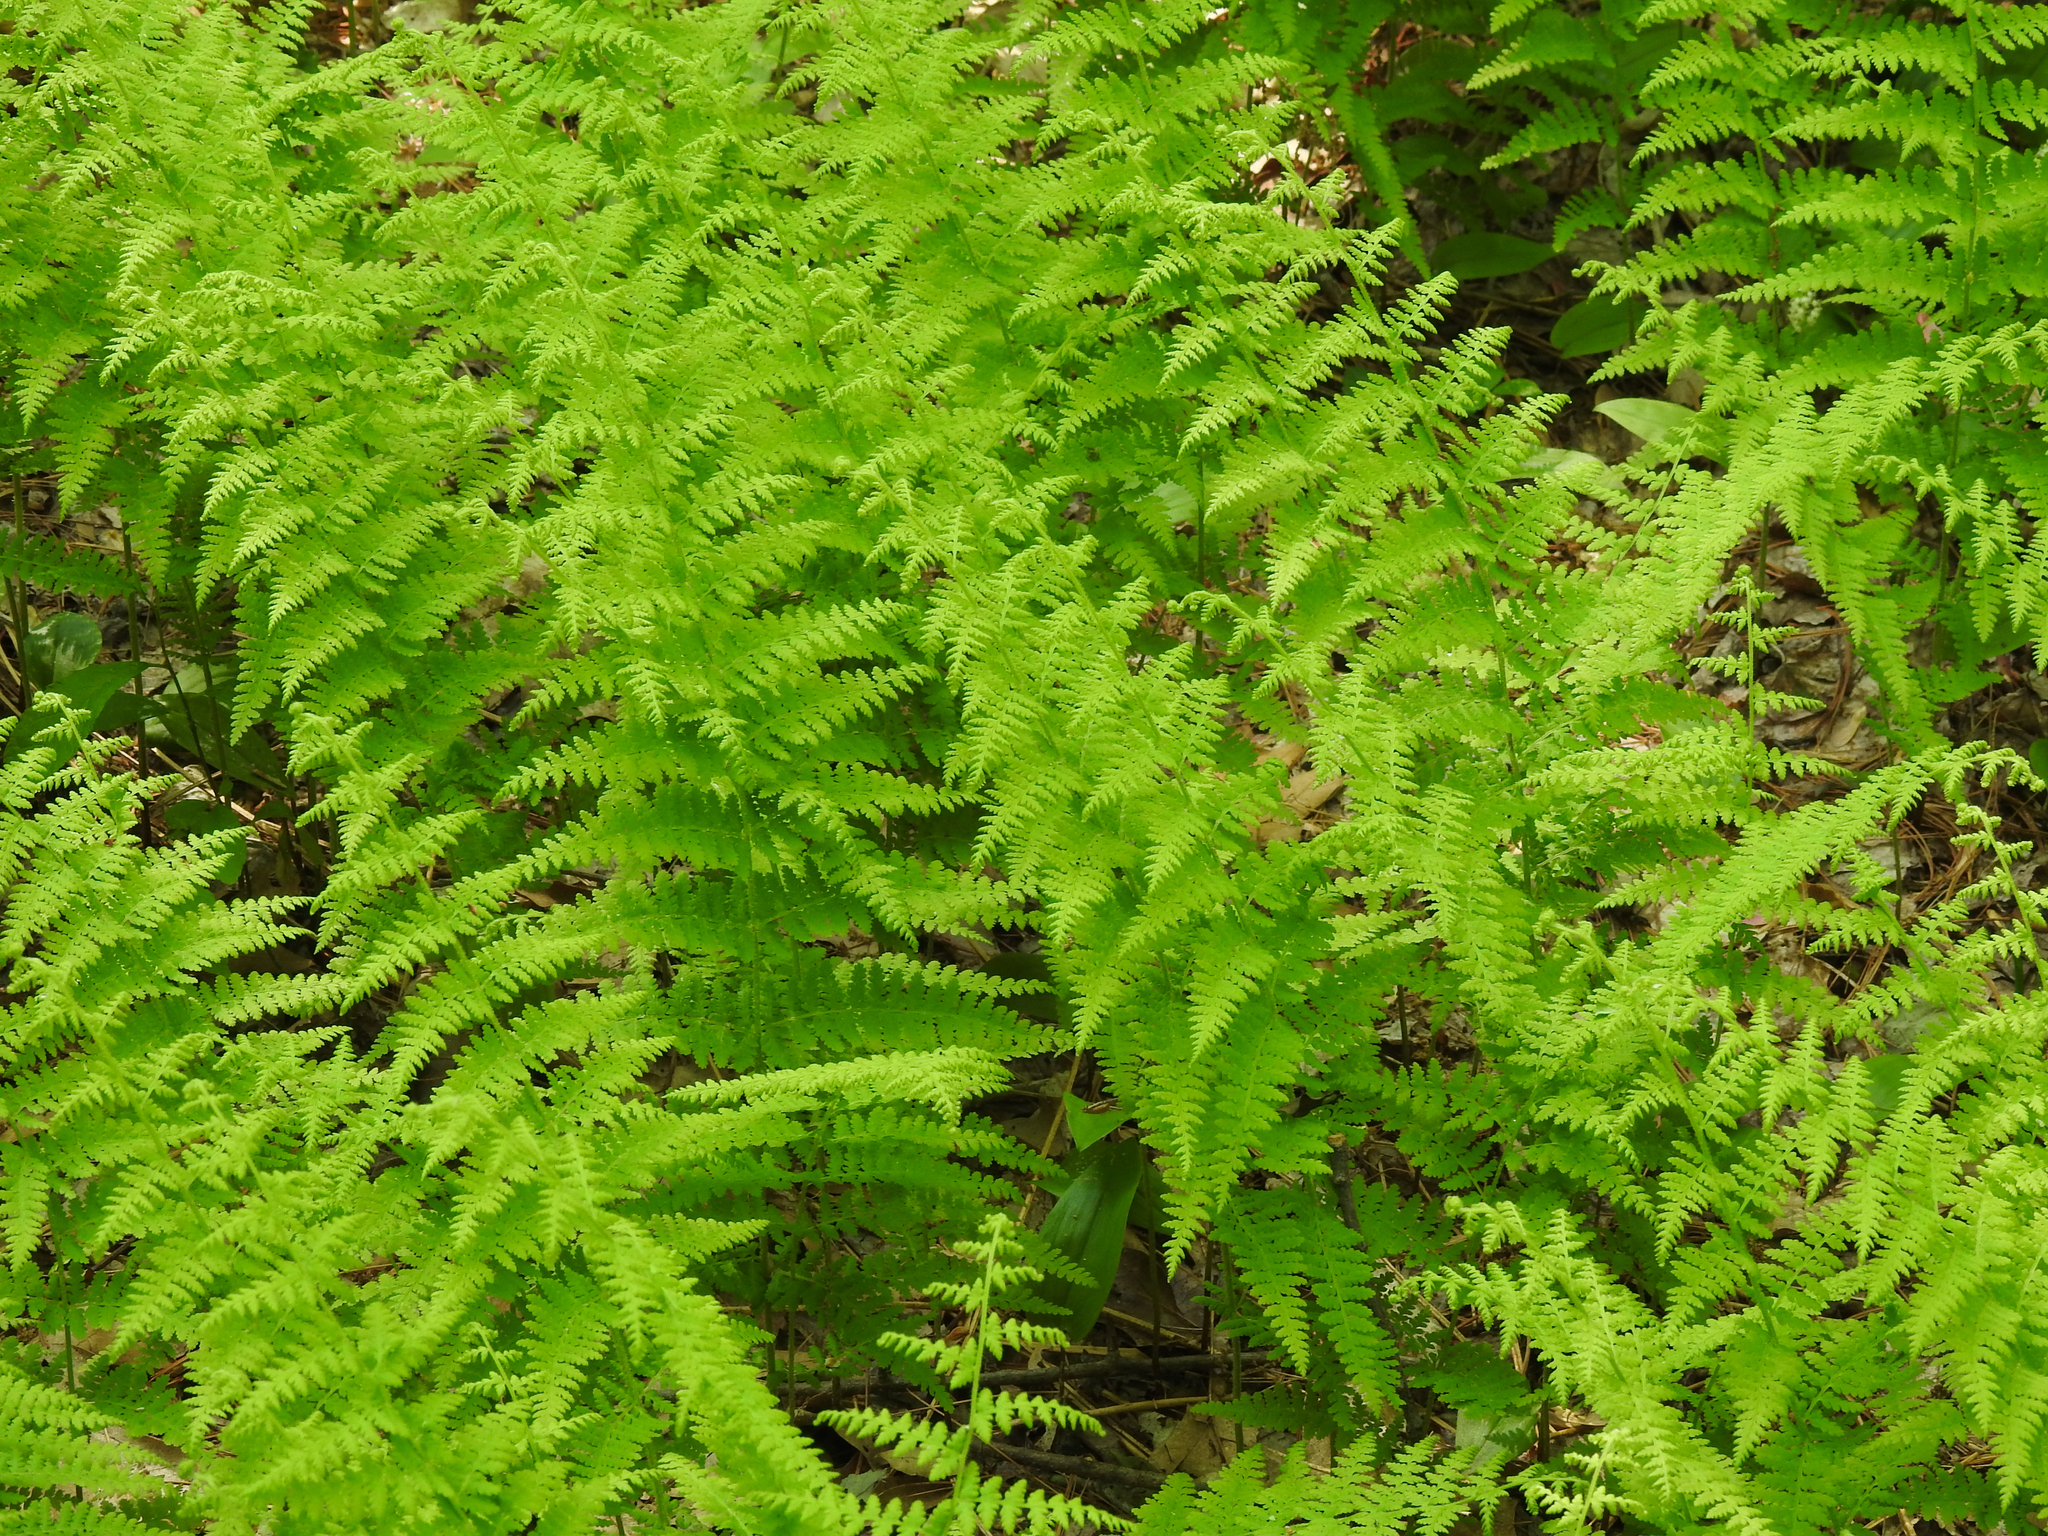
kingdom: Plantae
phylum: Tracheophyta
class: Polypodiopsida
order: Polypodiales
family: Dennstaedtiaceae
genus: Sitobolium
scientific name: Sitobolium punctilobum
